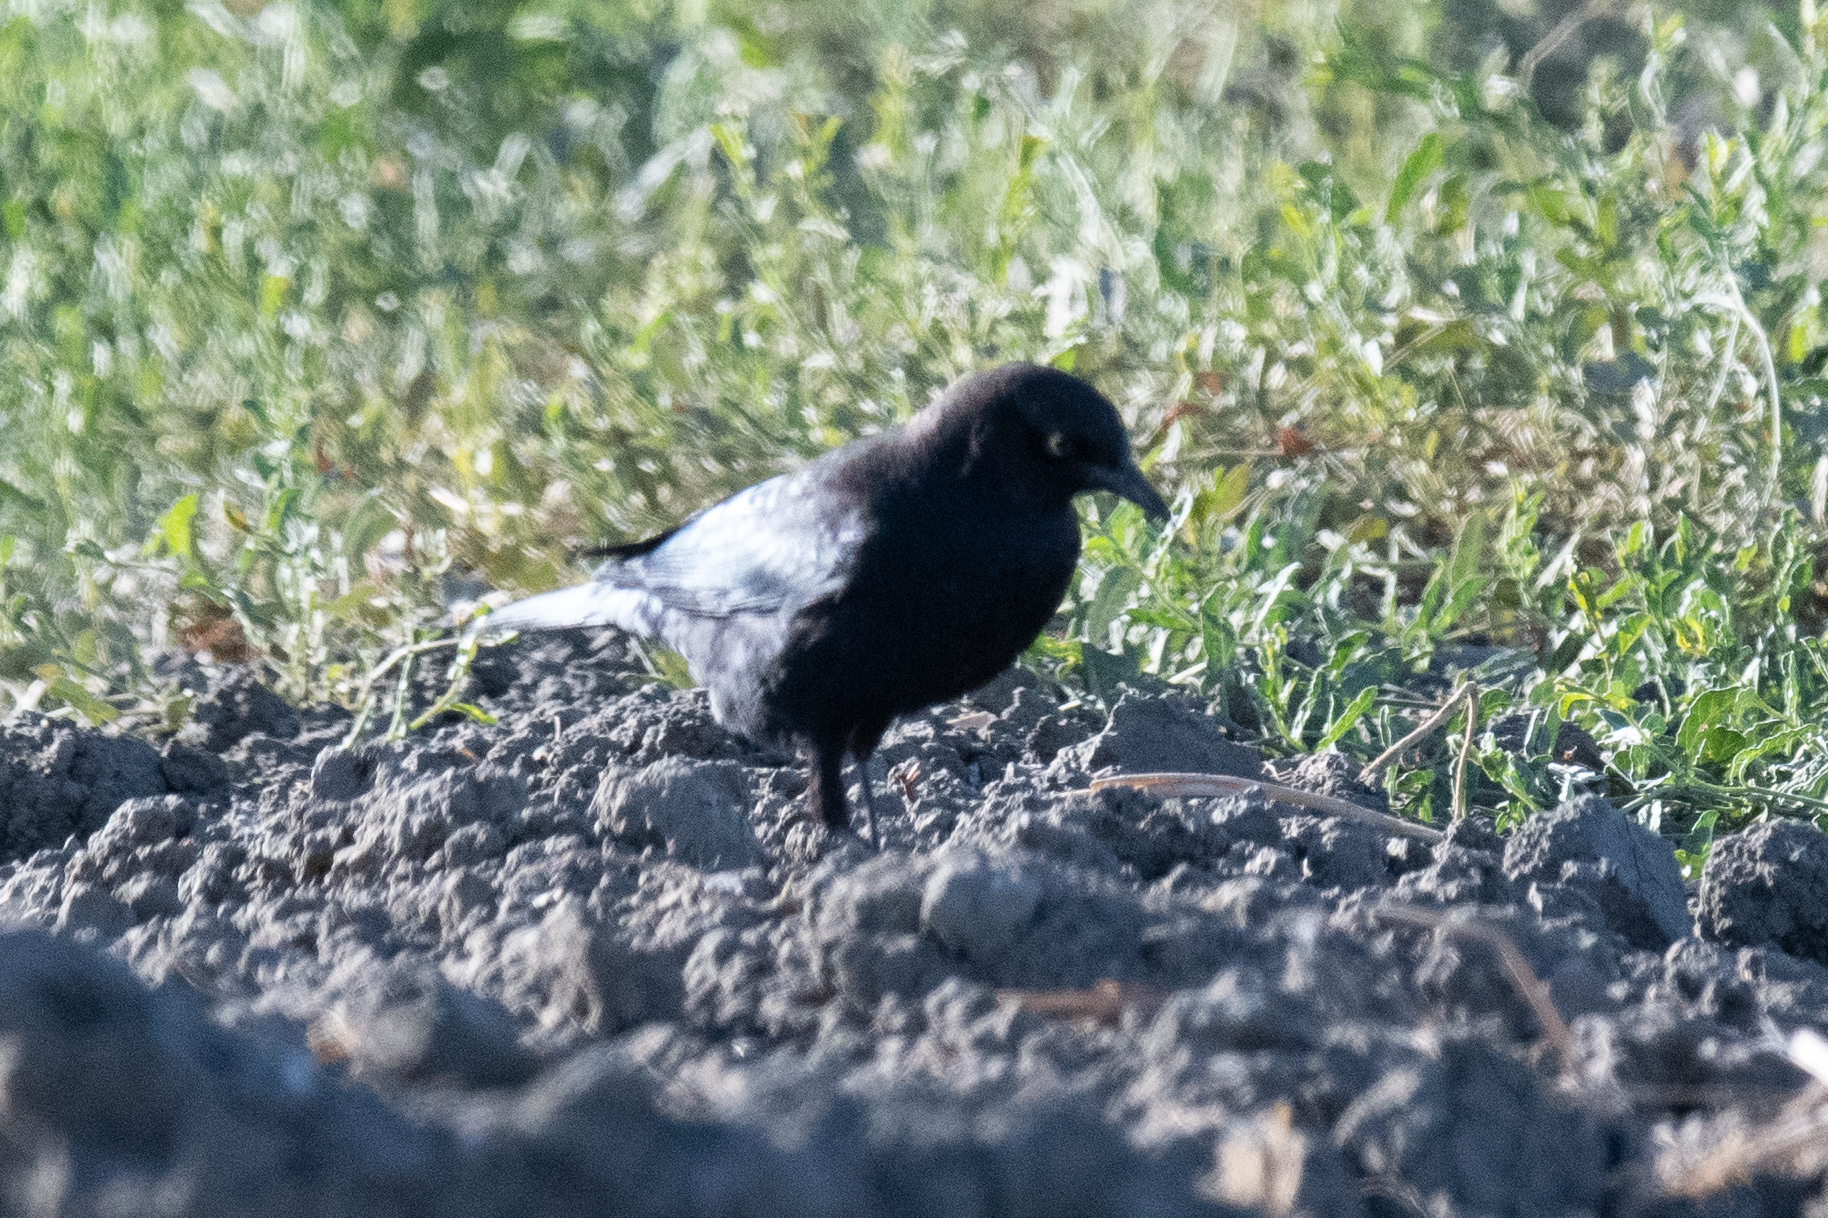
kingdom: Animalia
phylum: Chordata
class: Aves
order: Passeriformes
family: Icteridae
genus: Euphagus
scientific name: Euphagus cyanocephalus
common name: Brewer's blackbird
